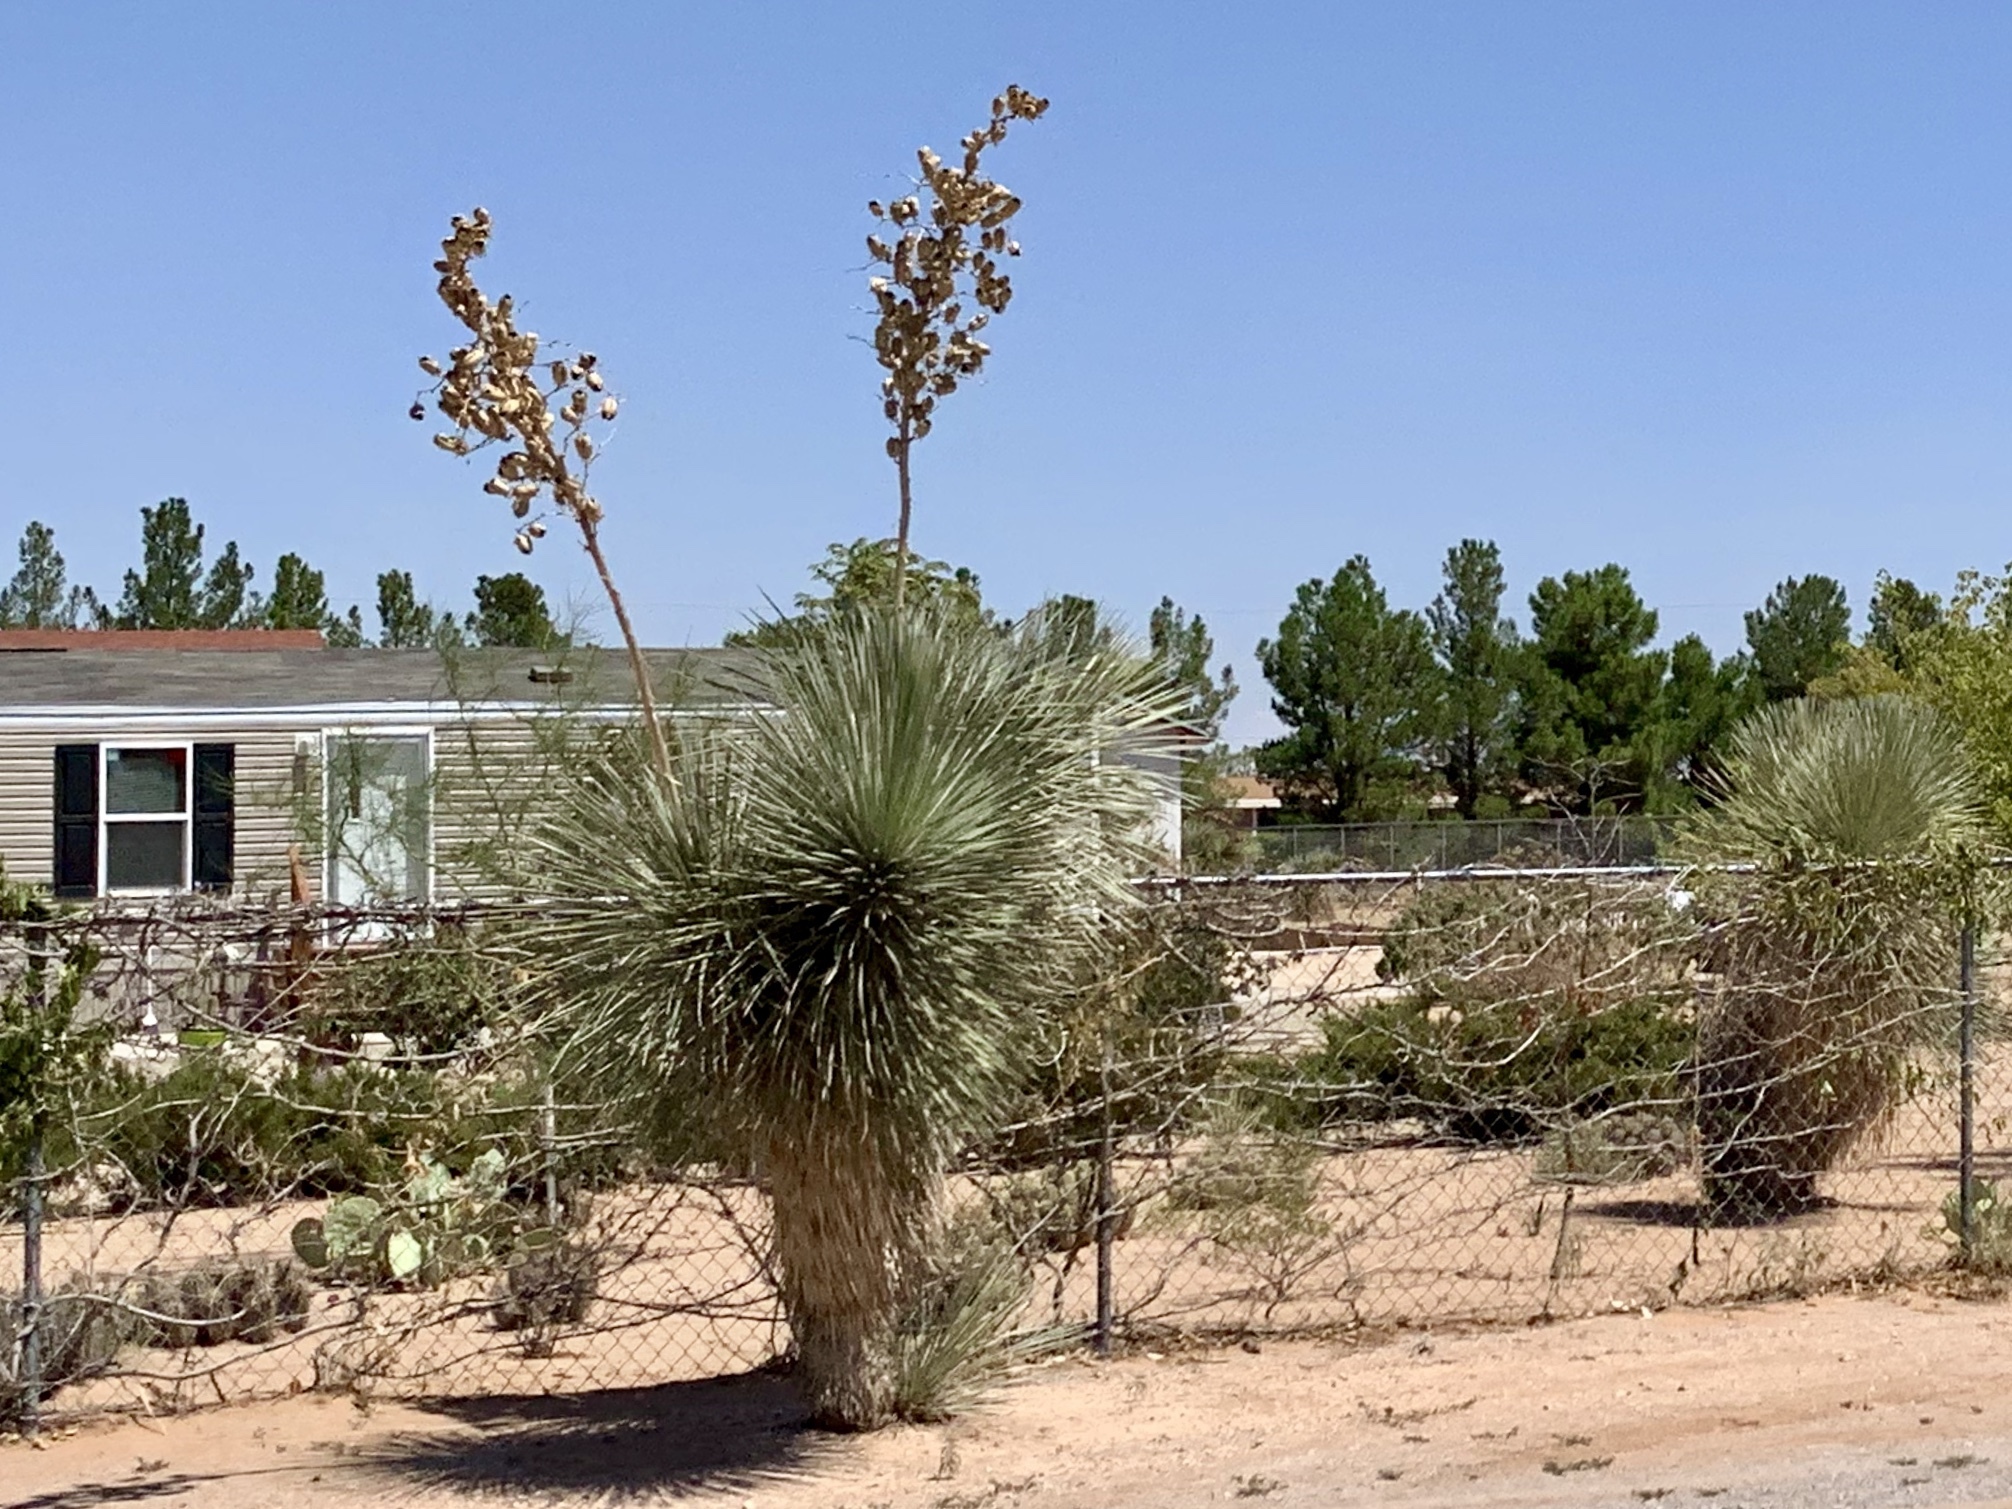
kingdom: Plantae
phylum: Tracheophyta
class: Liliopsida
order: Asparagales
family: Asparagaceae
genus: Yucca
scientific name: Yucca elata
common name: Palmella
